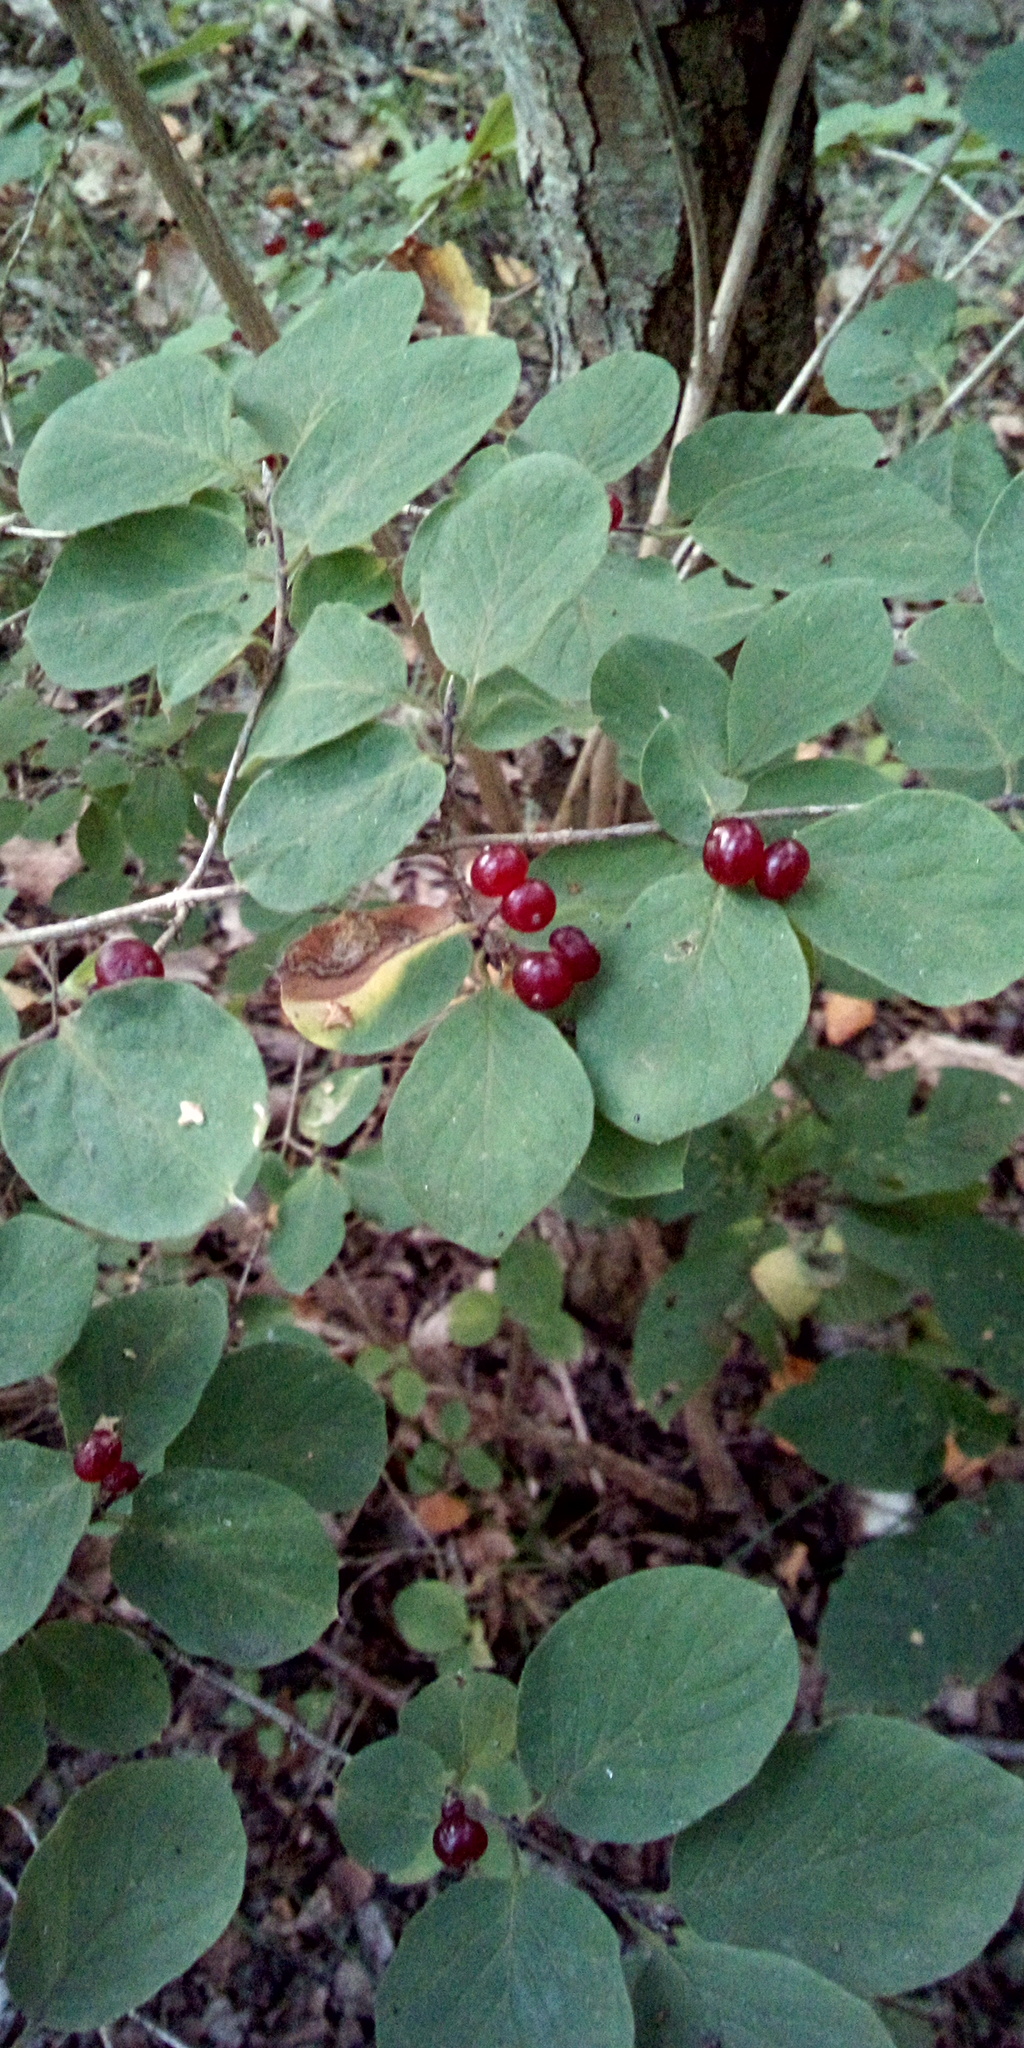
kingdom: Plantae
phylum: Tracheophyta
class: Magnoliopsida
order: Dipsacales
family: Caprifoliaceae
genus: Lonicera
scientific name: Lonicera xylosteum
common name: Fly honeysuckle
